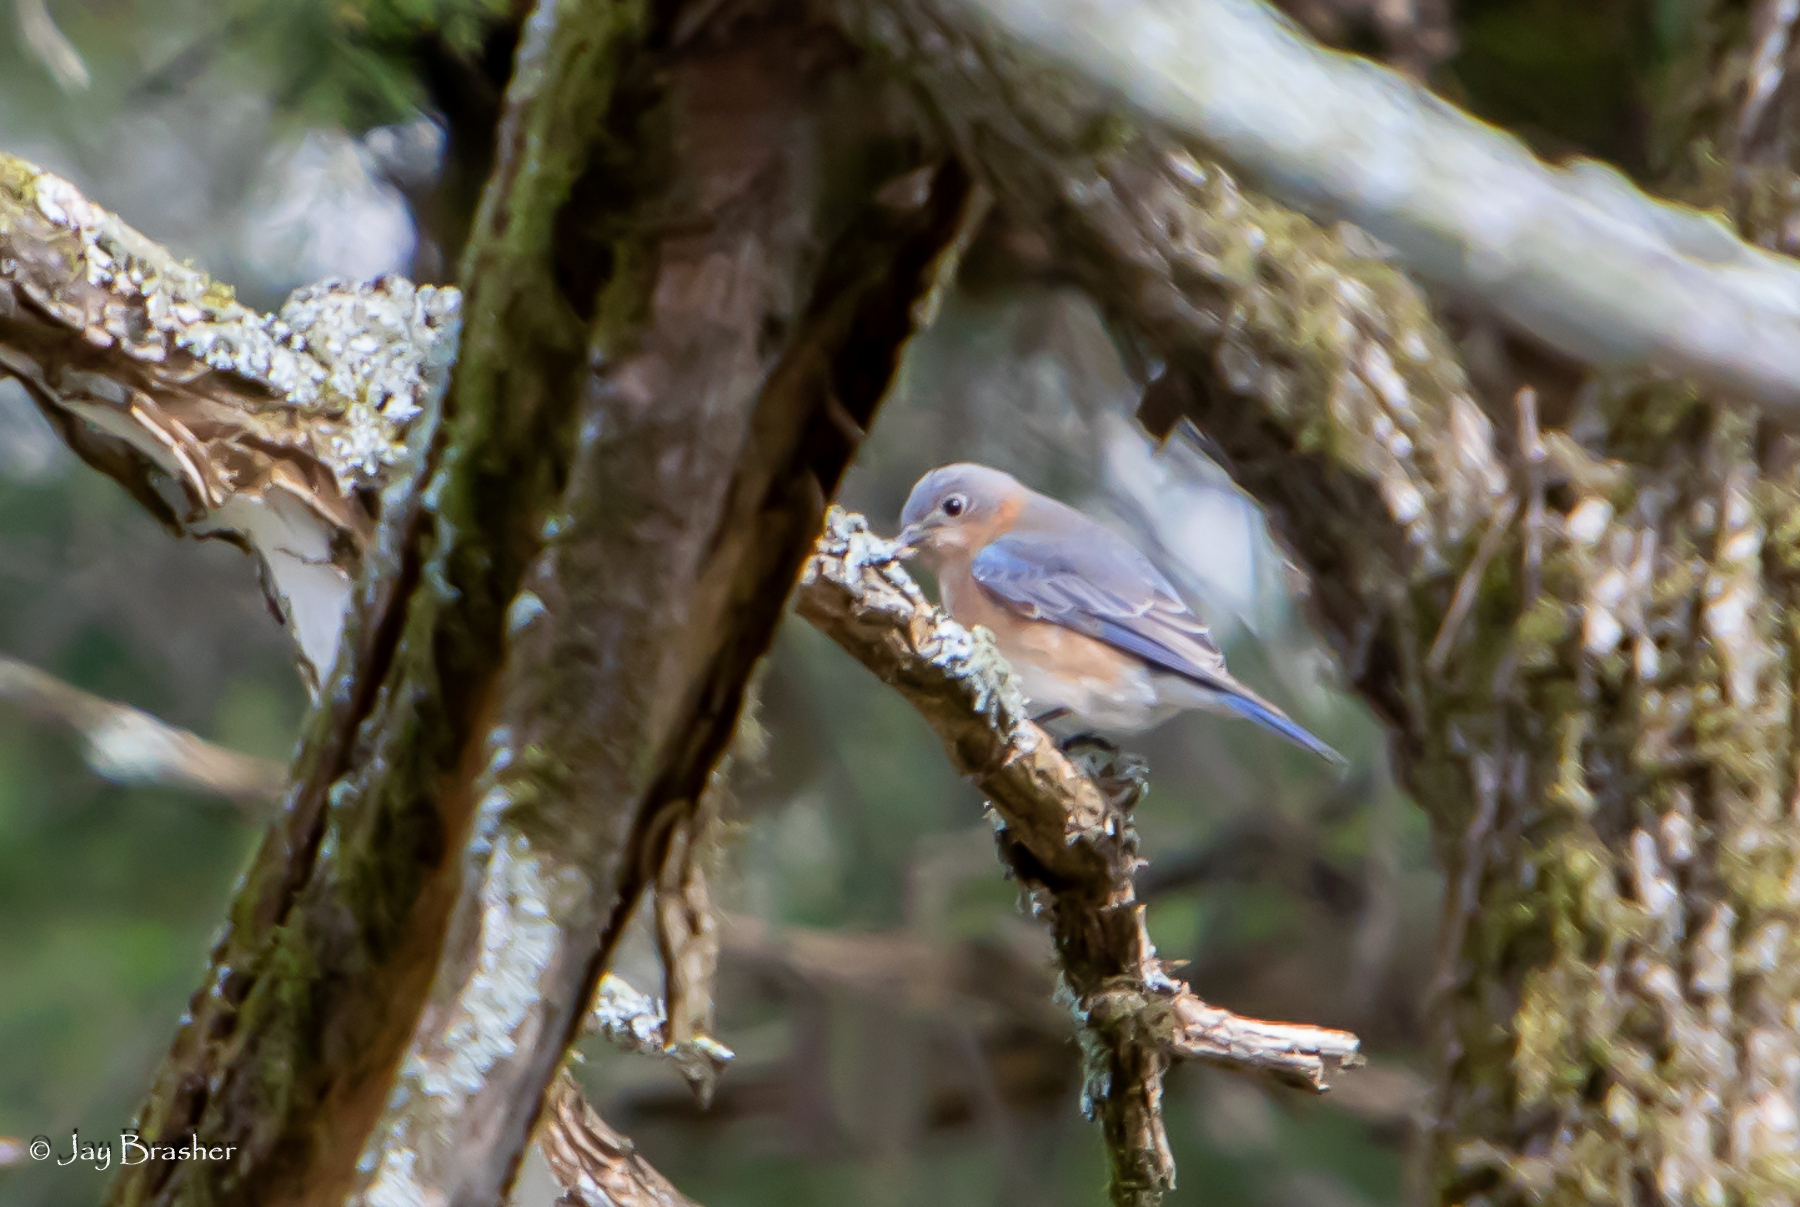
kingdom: Animalia
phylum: Chordata
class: Aves
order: Passeriformes
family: Turdidae
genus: Sialia
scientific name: Sialia sialis
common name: Eastern bluebird
